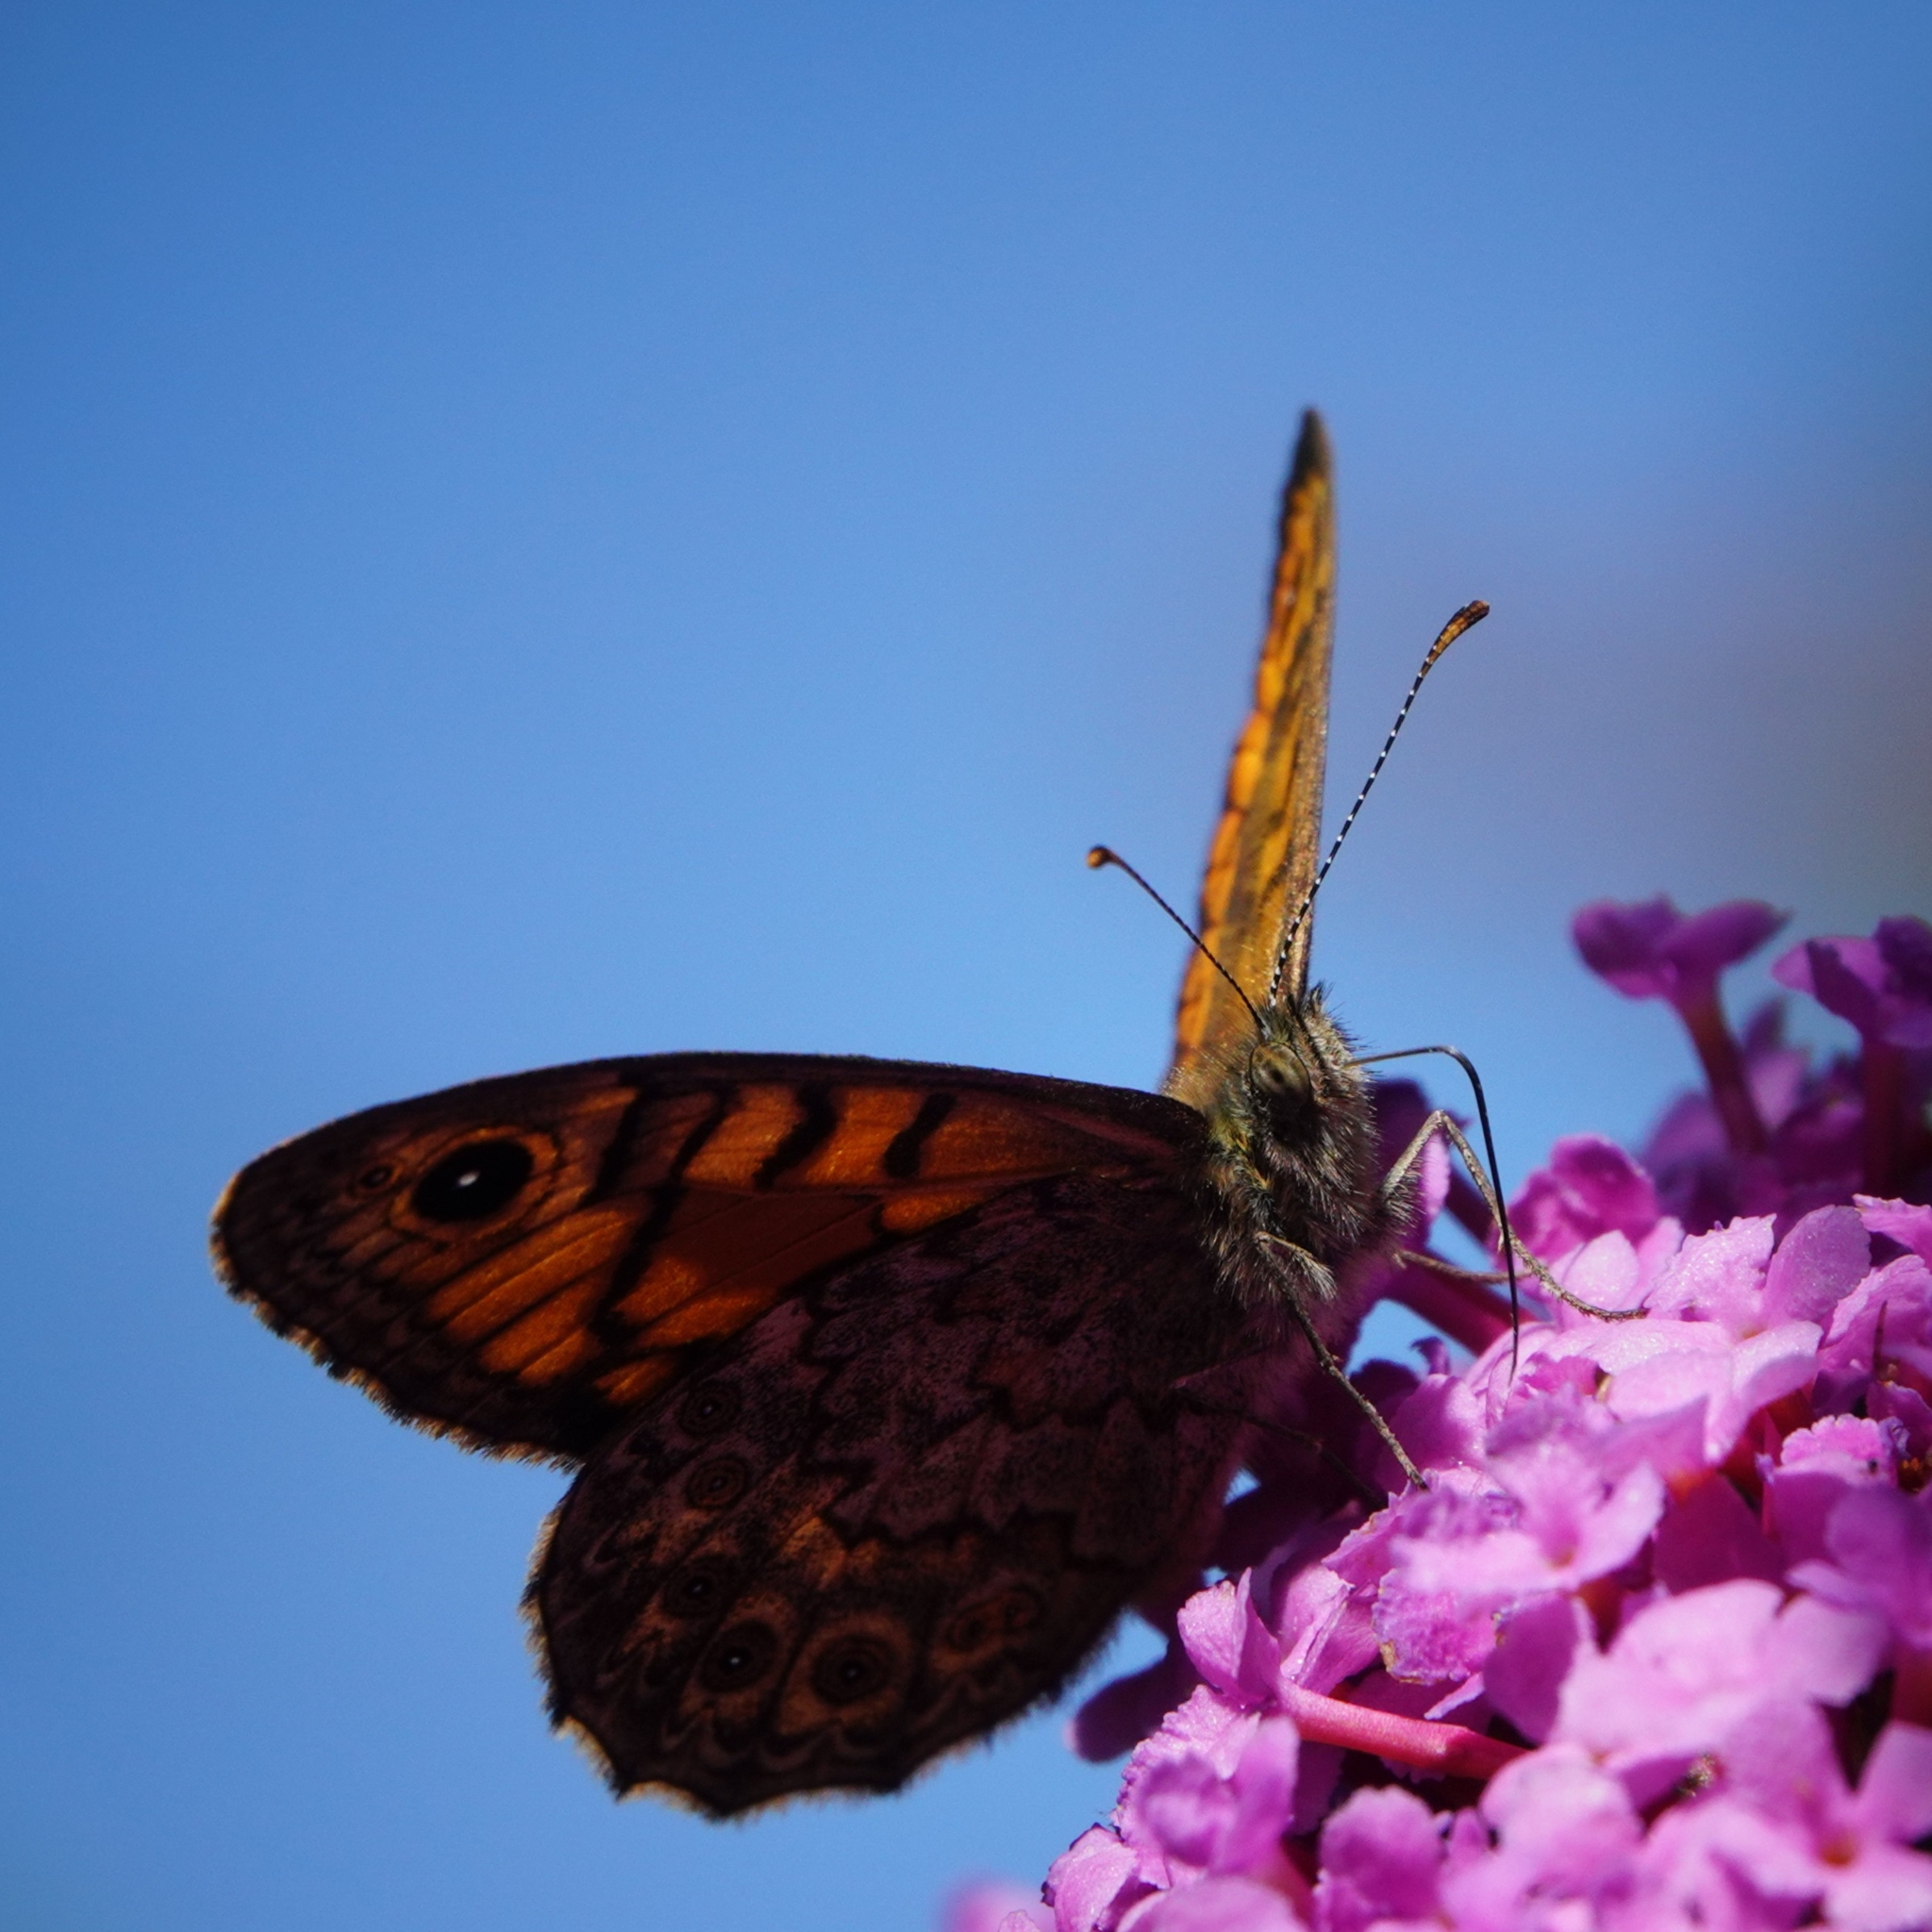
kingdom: Animalia
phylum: Arthropoda
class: Insecta
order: Lepidoptera
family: Nymphalidae
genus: Pararge
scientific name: Pararge Lasiommata megera
